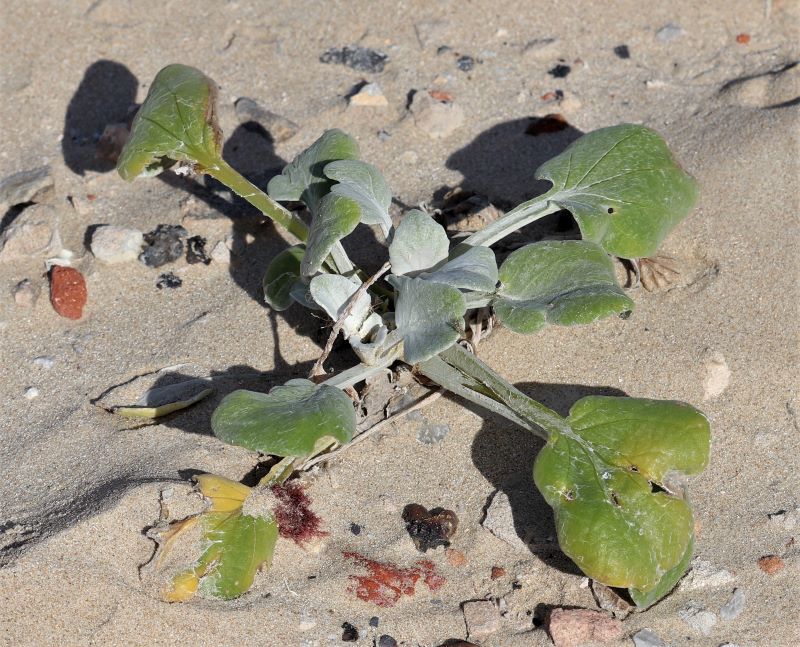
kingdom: Plantae
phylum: Tracheophyta
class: Magnoliopsida
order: Asterales
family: Asteraceae
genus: Arctotheca
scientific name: Arctotheca populifolia
